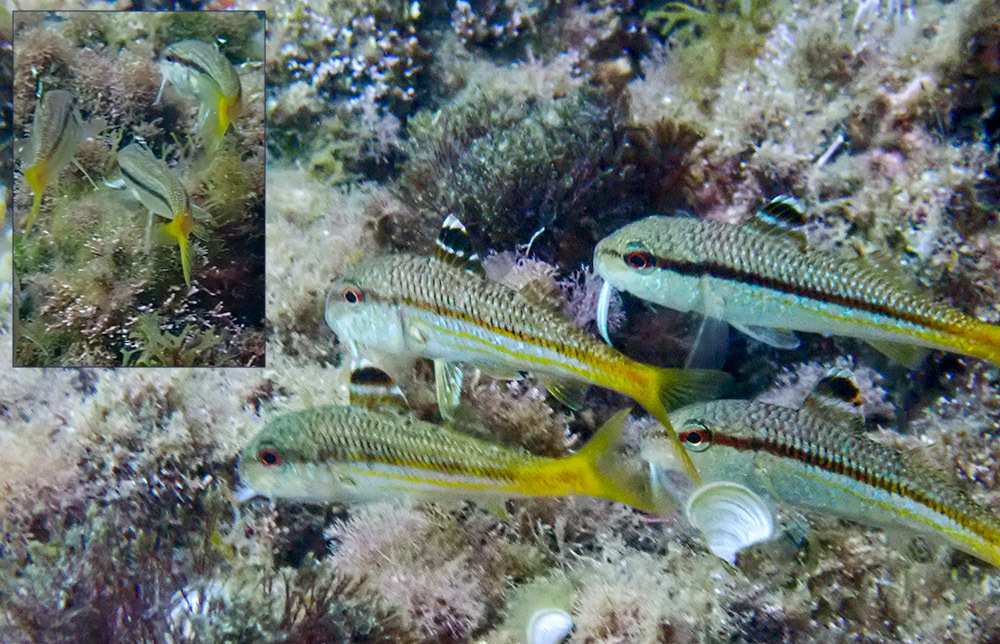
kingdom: Animalia
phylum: Chordata
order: Perciformes
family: Mullidae
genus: Mullus
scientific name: Mullus surmuletus
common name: Red mullet
